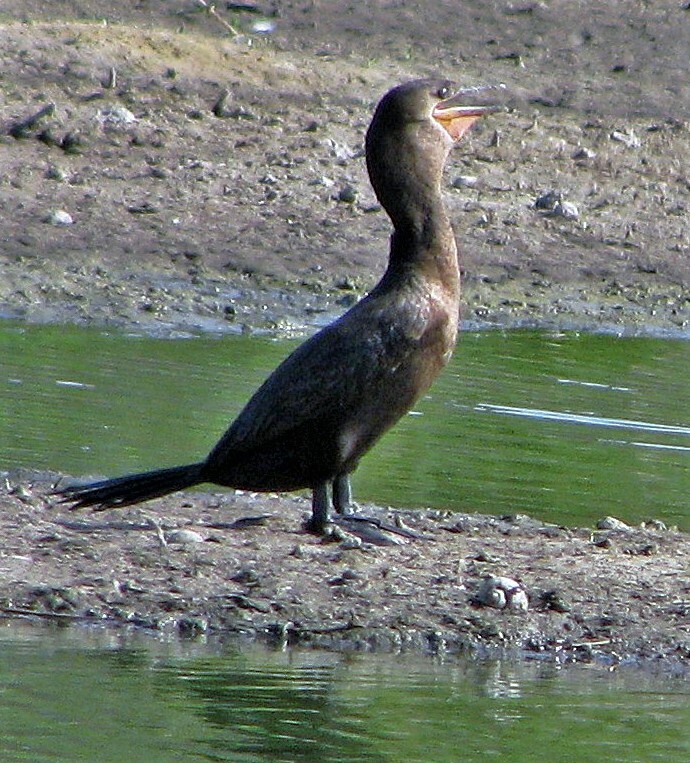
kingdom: Animalia
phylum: Chordata
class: Aves
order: Suliformes
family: Phalacrocoracidae
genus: Phalacrocorax
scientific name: Phalacrocorax brasilianus
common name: Neotropic cormorant
